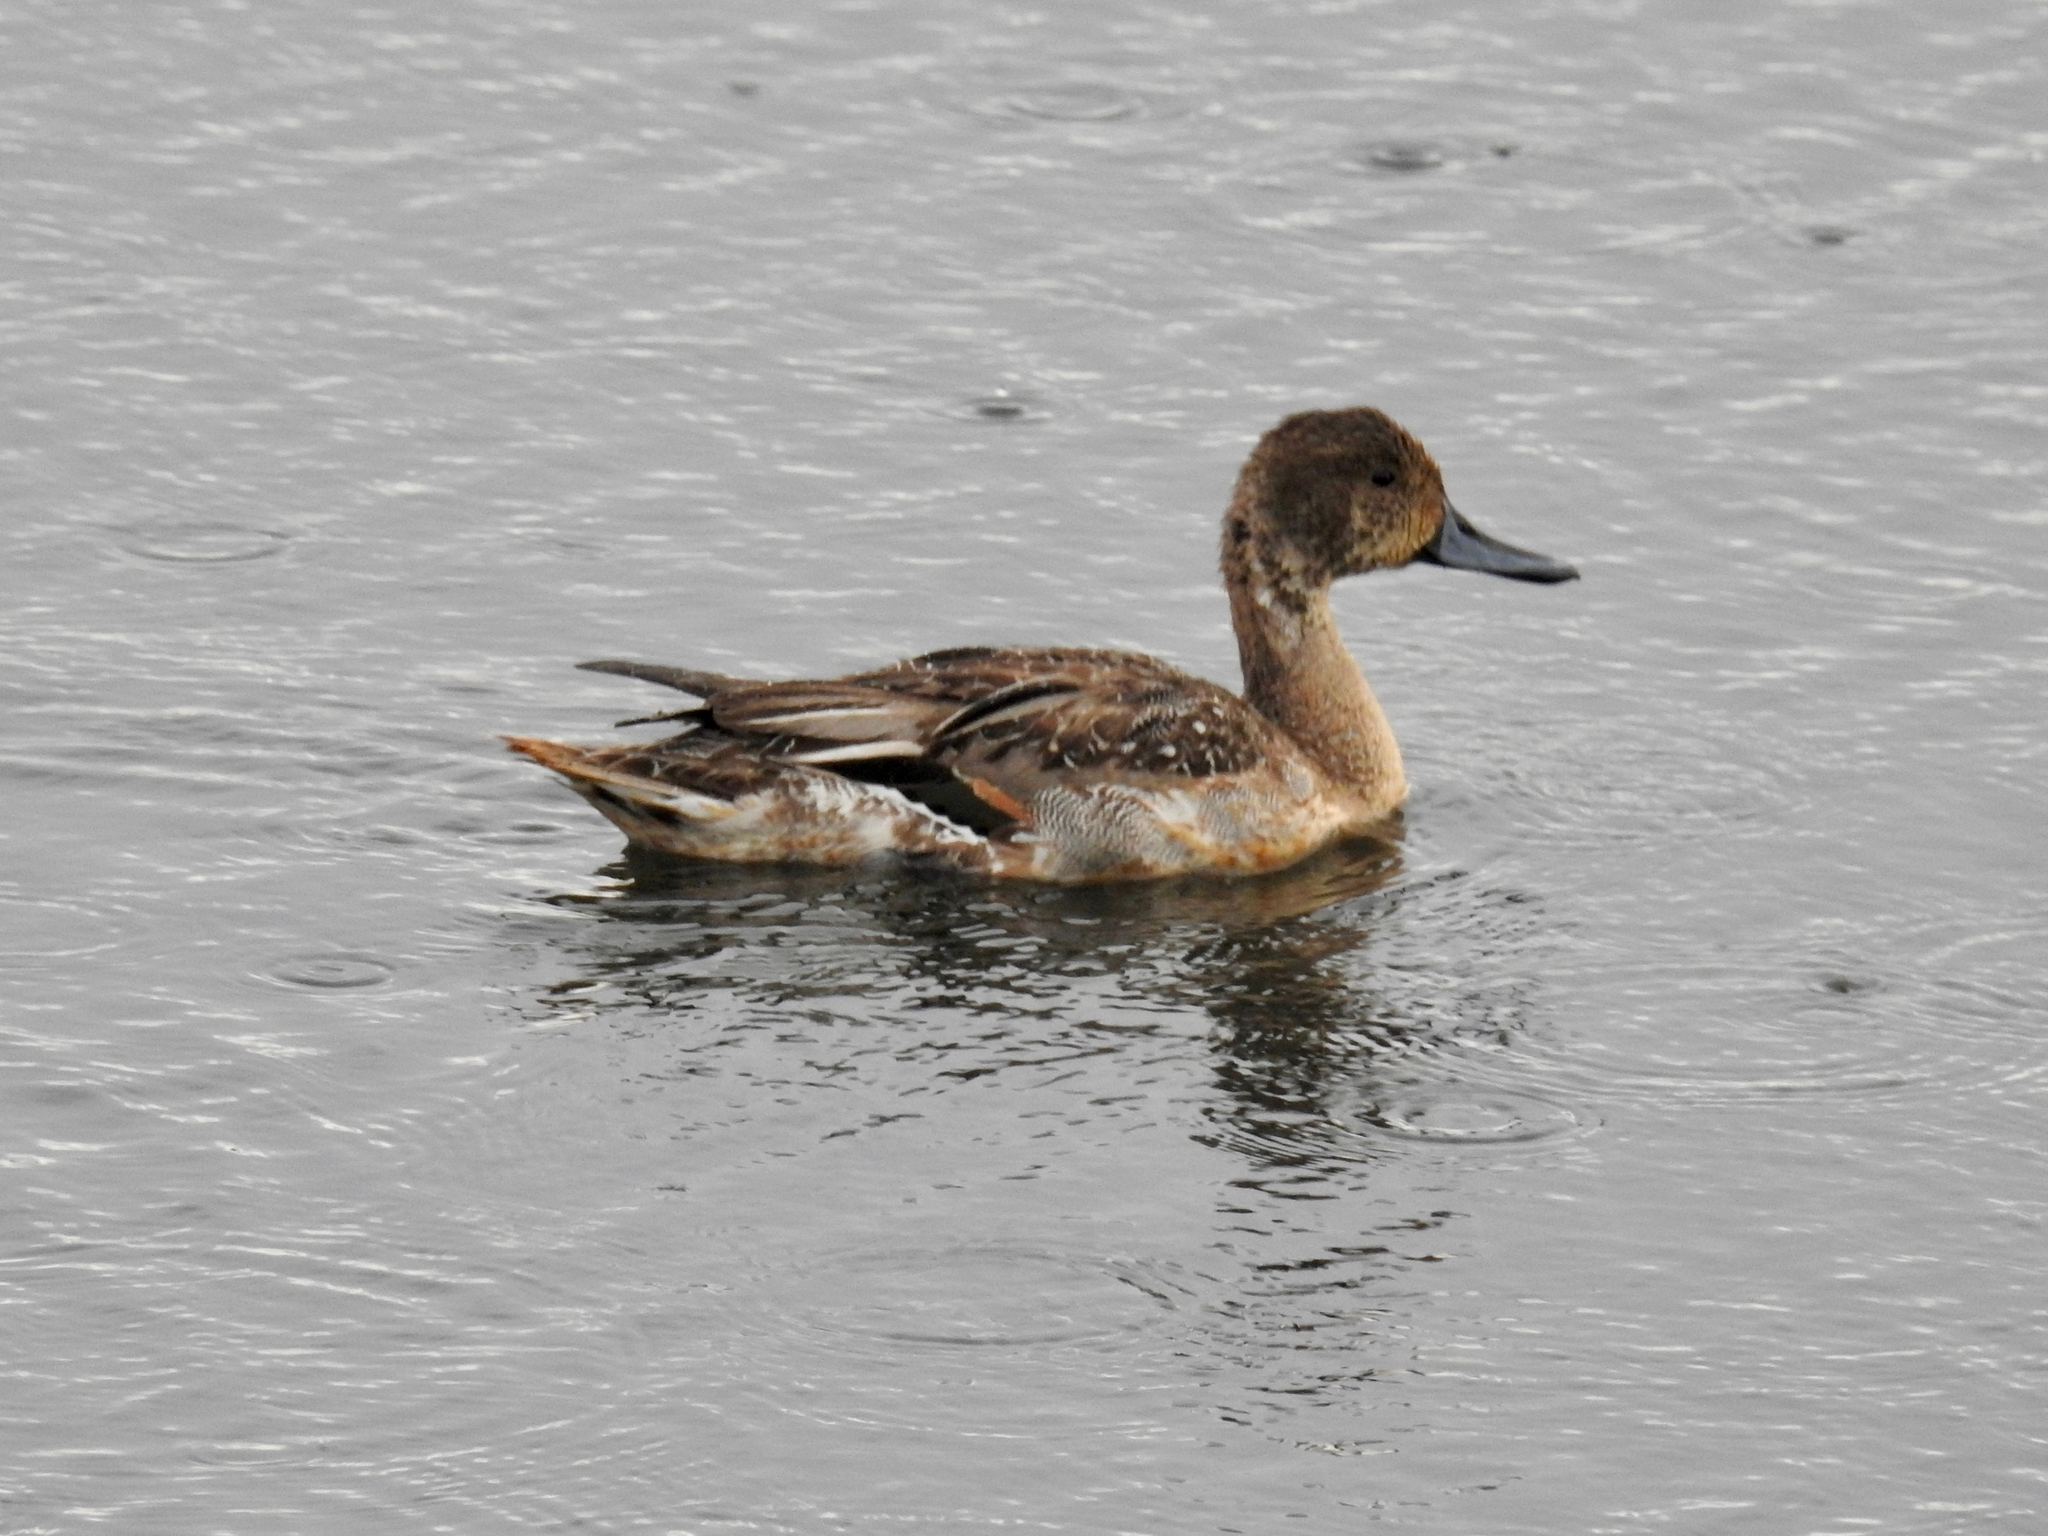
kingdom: Animalia
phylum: Chordata
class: Aves
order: Anseriformes
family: Anatidae
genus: Anas
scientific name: Anas acuta
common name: Northern pintail
